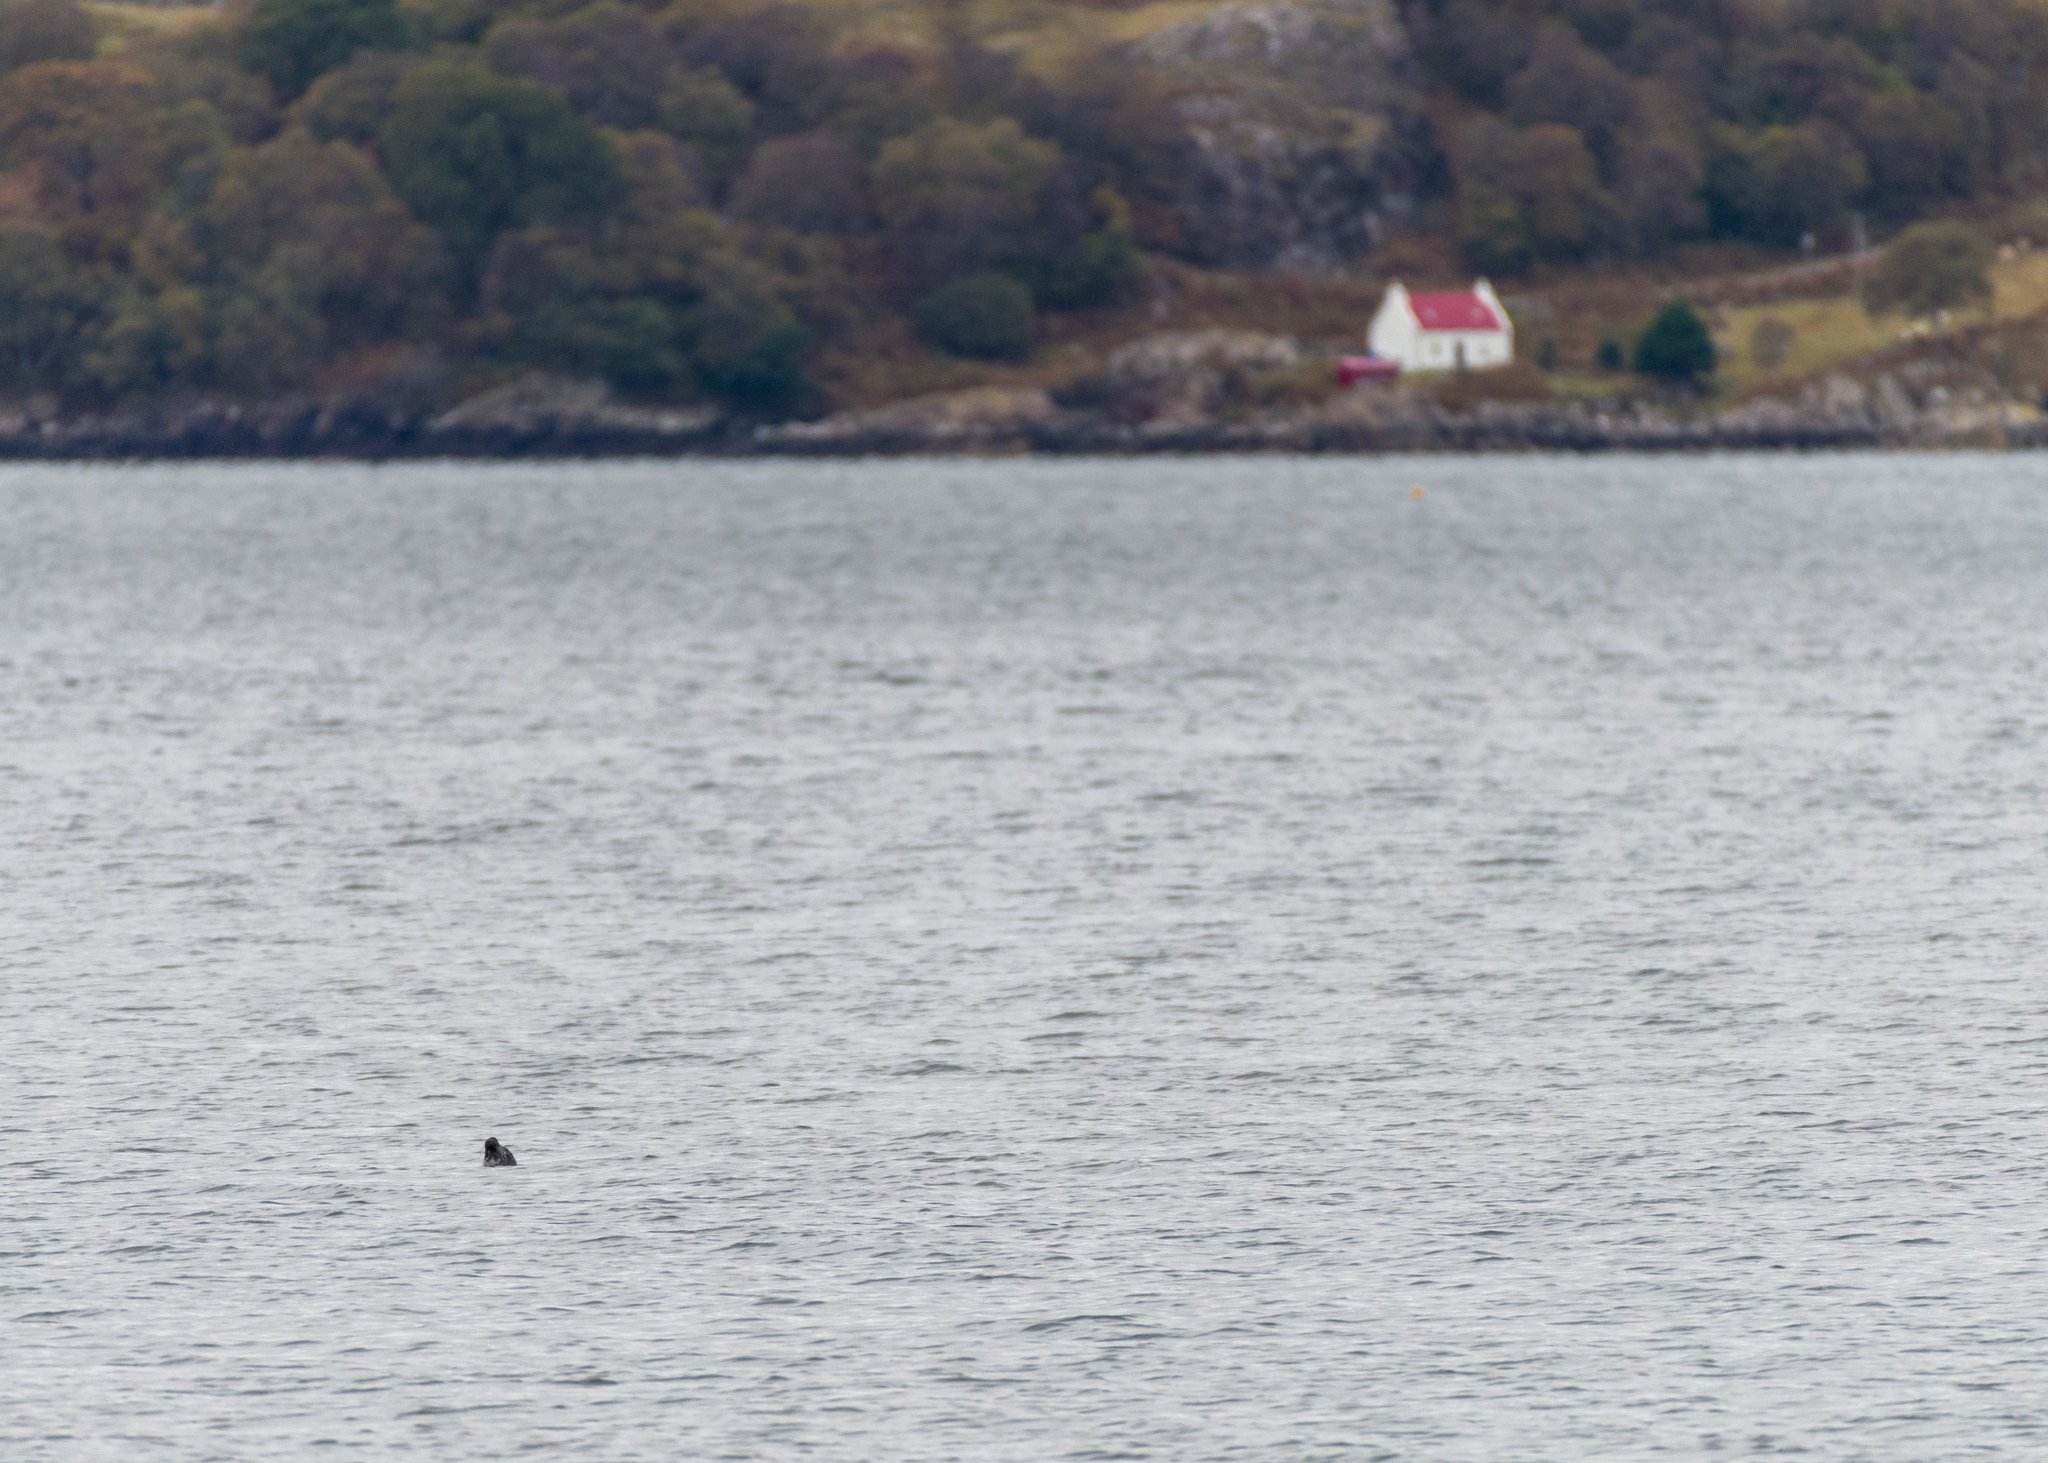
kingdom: Animalia
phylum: Chordata
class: Mammalia
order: Carnivora
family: Phocidae
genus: Phoca
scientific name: Phoca vitulina
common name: Harbor seal
